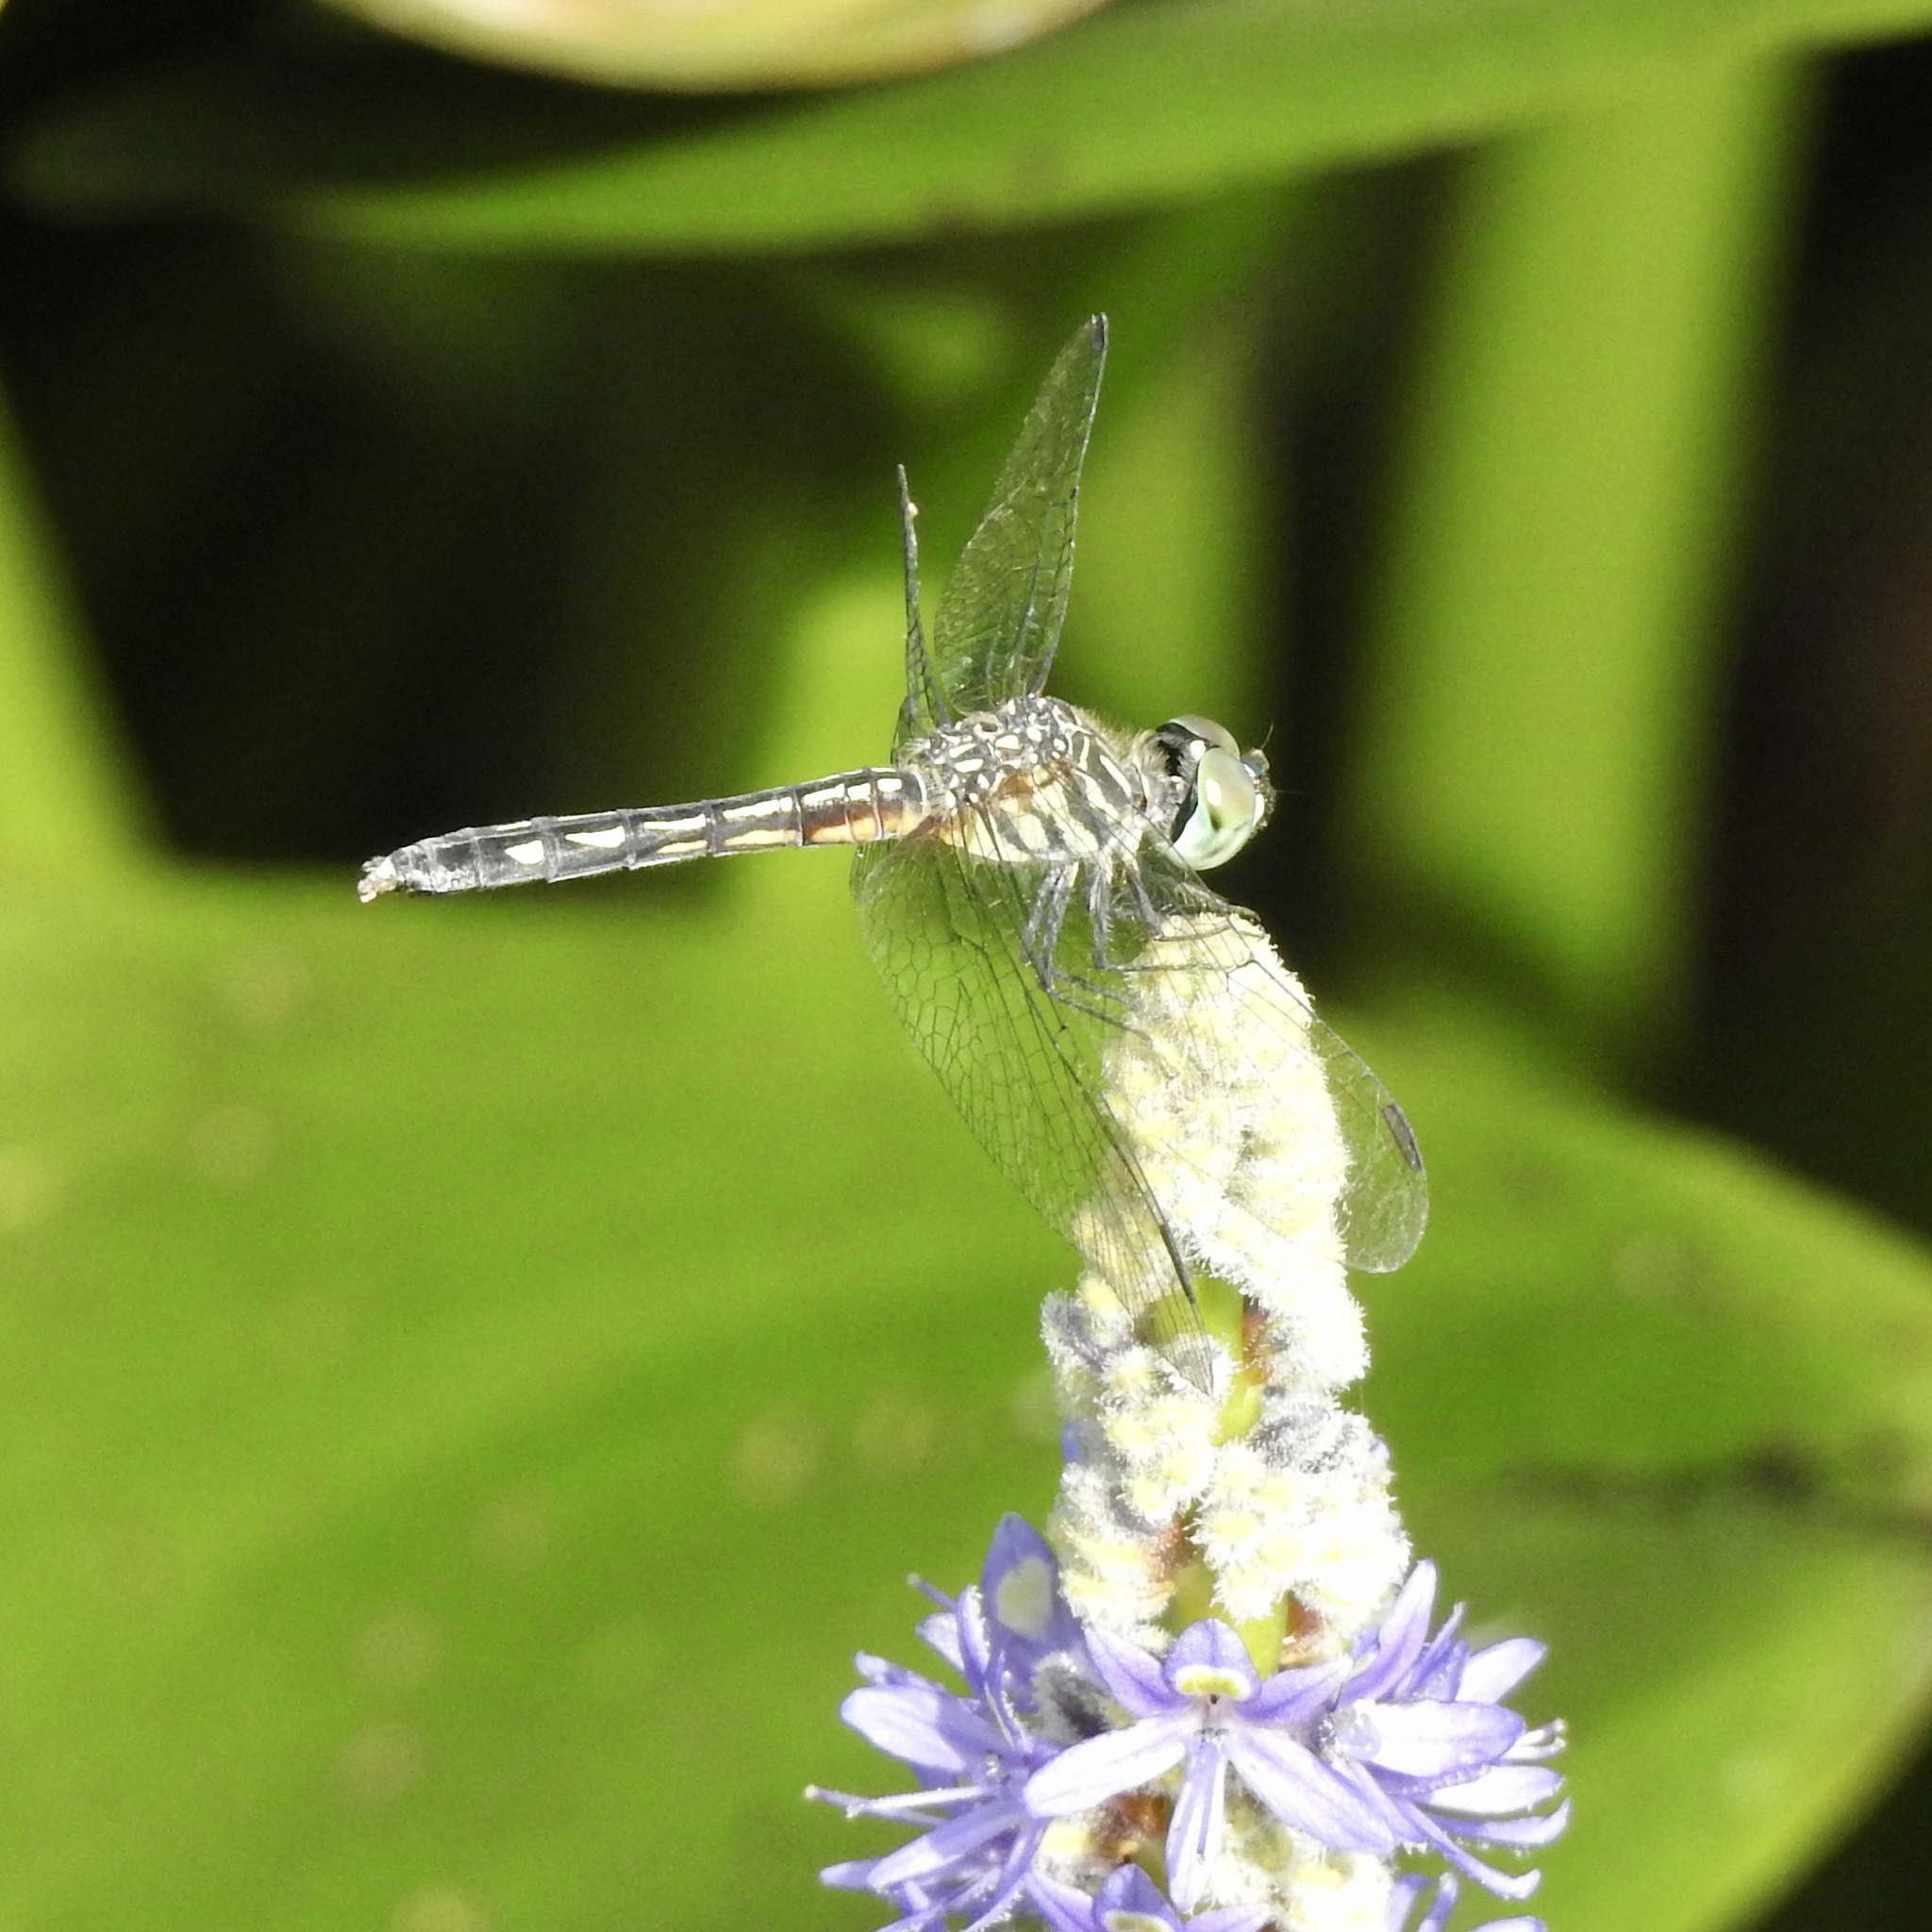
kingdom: Animalia
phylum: Arthropoda
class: Insecta
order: Odonata
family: Libellulidae
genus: Pachydiplax
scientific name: Pachydiplax longipennis
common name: Blue dasher
